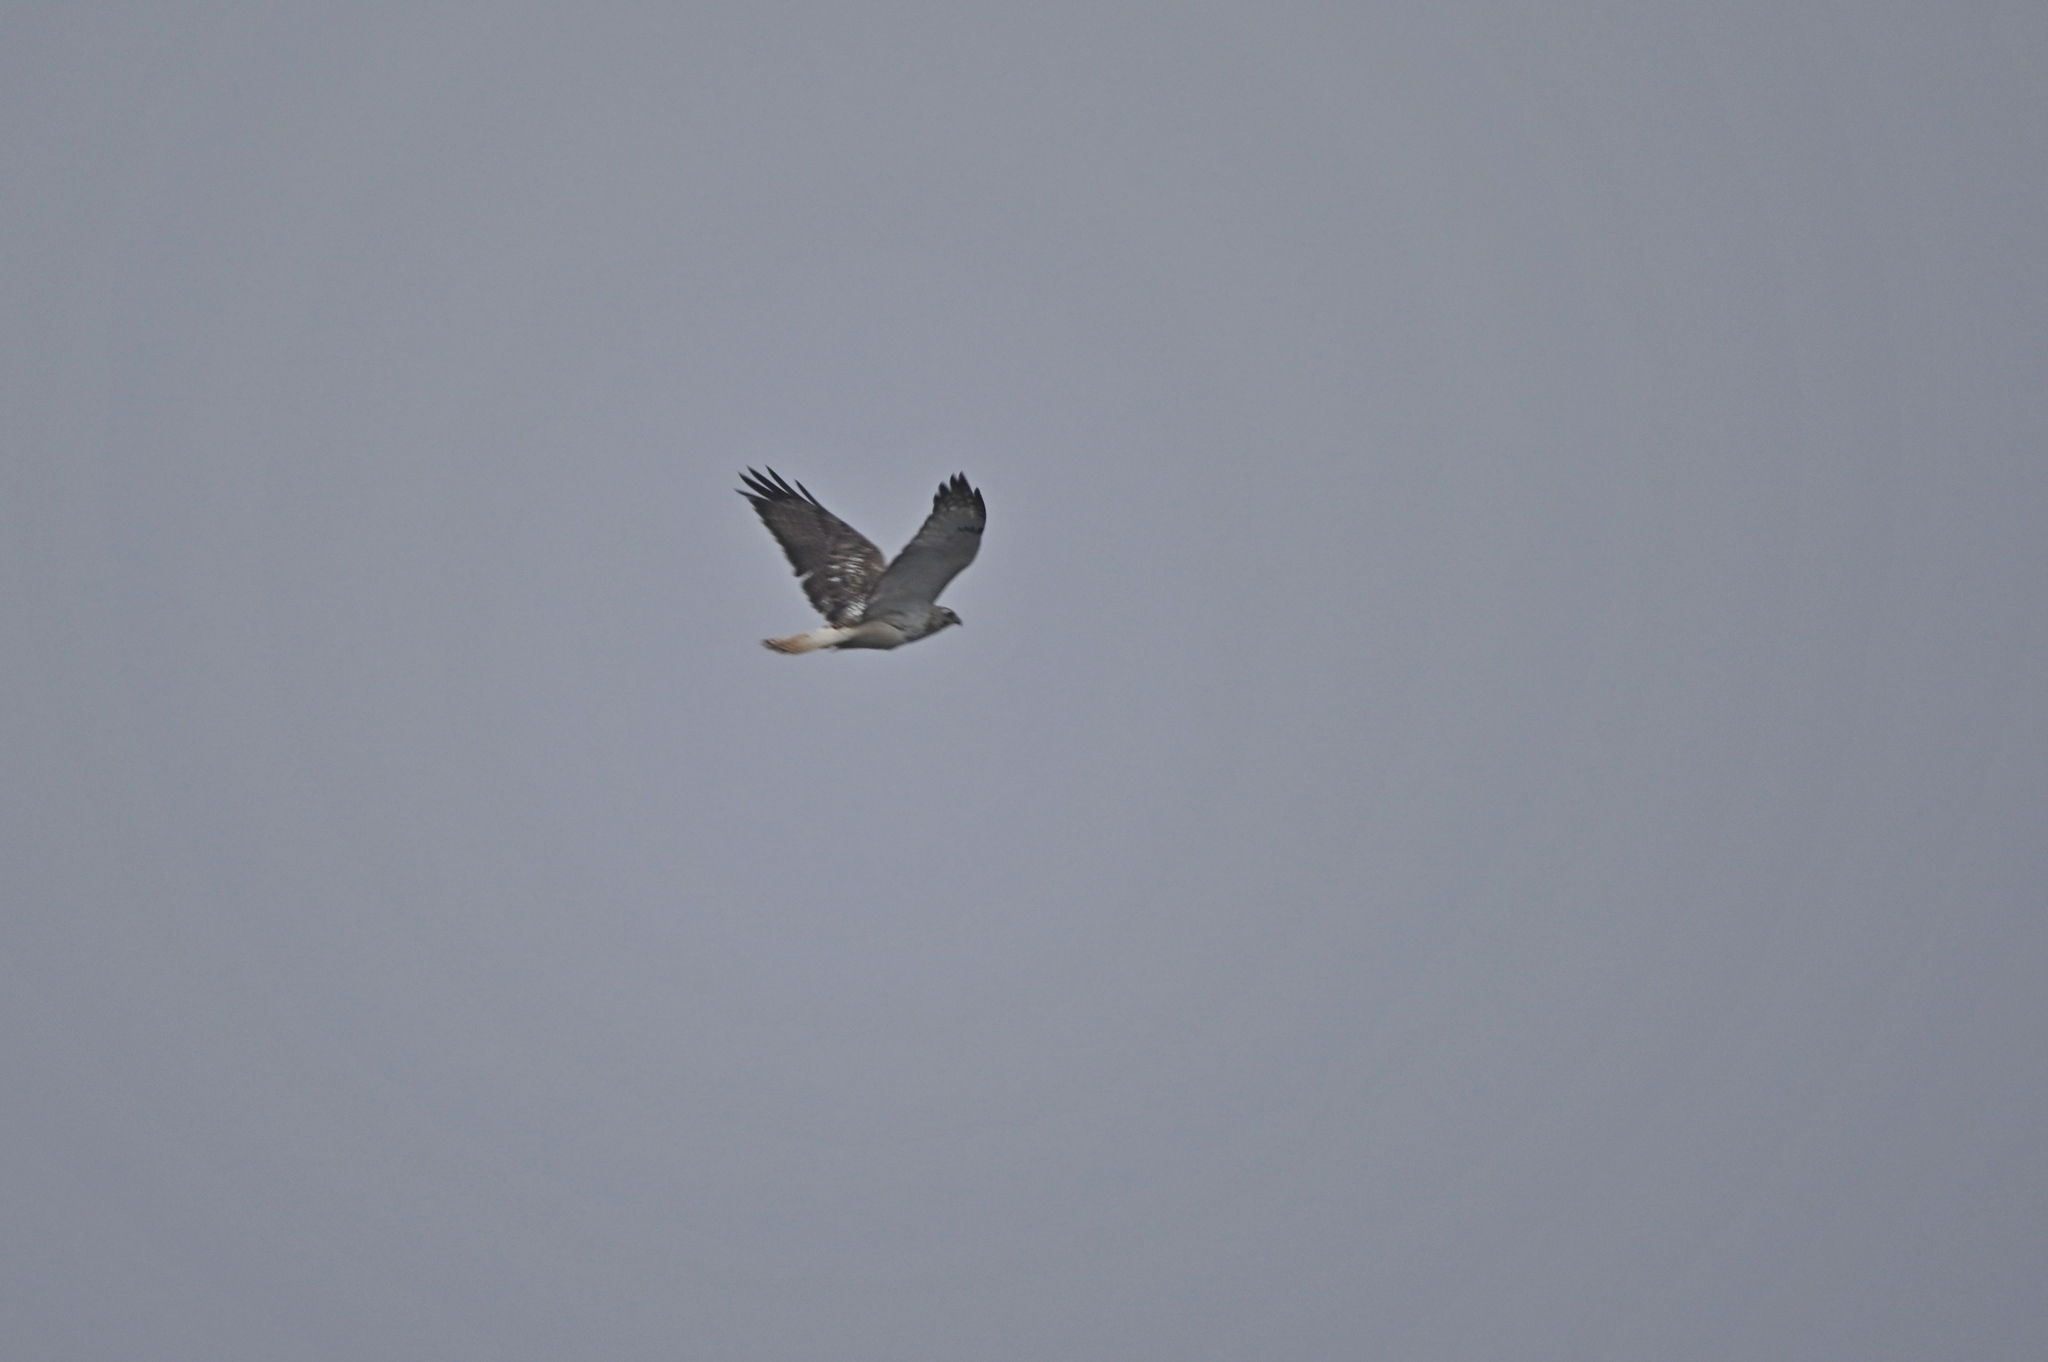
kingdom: Animalia
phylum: Chordata
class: Aves
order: Accipitriformes
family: Accipitridae
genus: Buteo
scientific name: Buteo jamaicensis
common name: Red-tailed hawk
